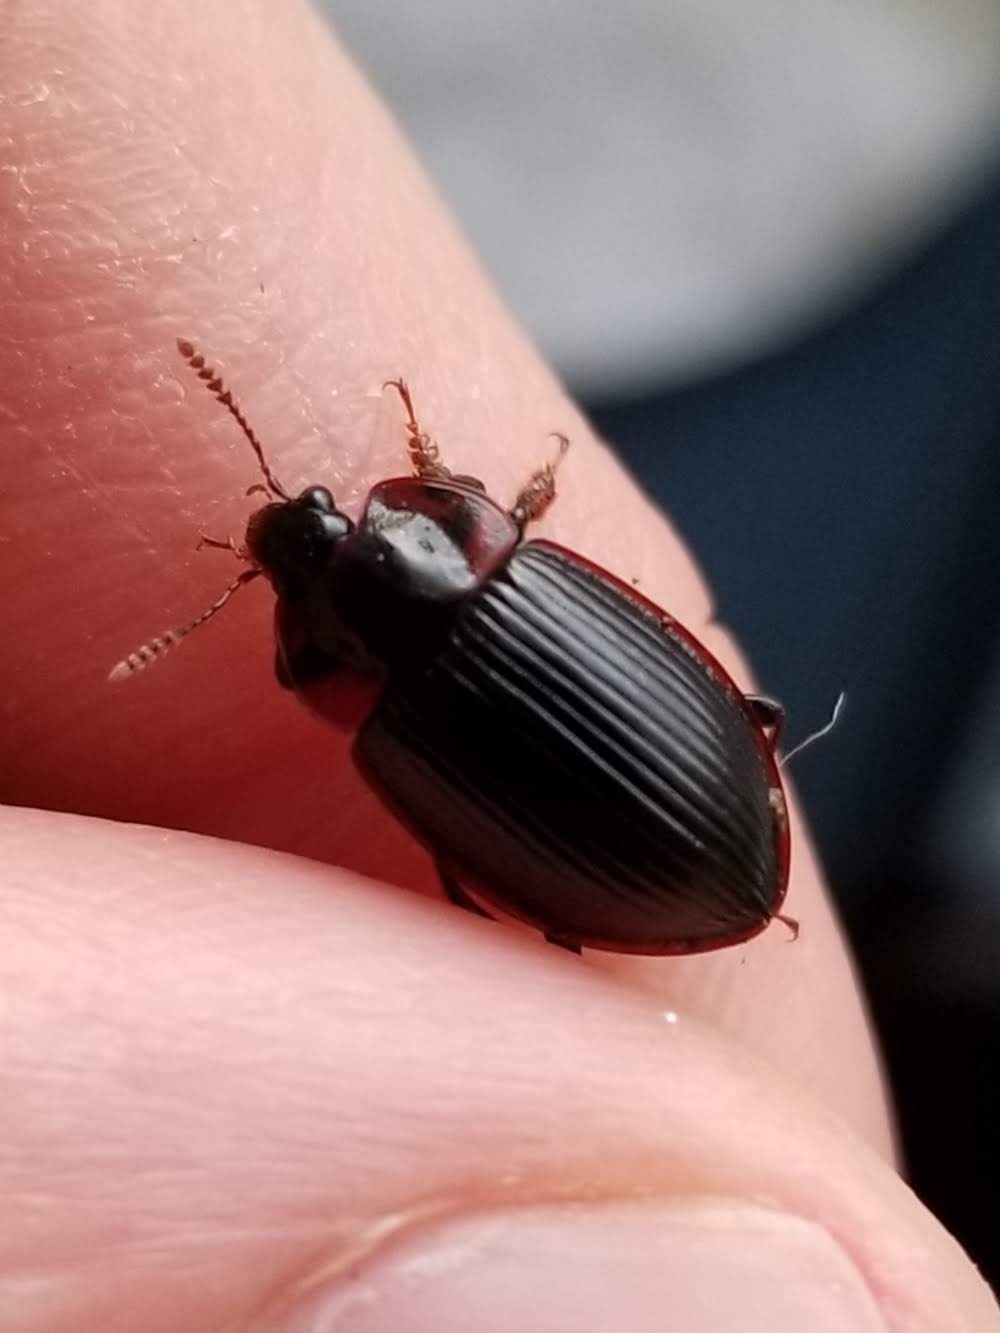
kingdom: Animalia
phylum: Arthropoda
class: Insecta
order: Coleoptera
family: Agyrtidae
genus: Necrophilus
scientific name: Necrophilus hydrophiloides
